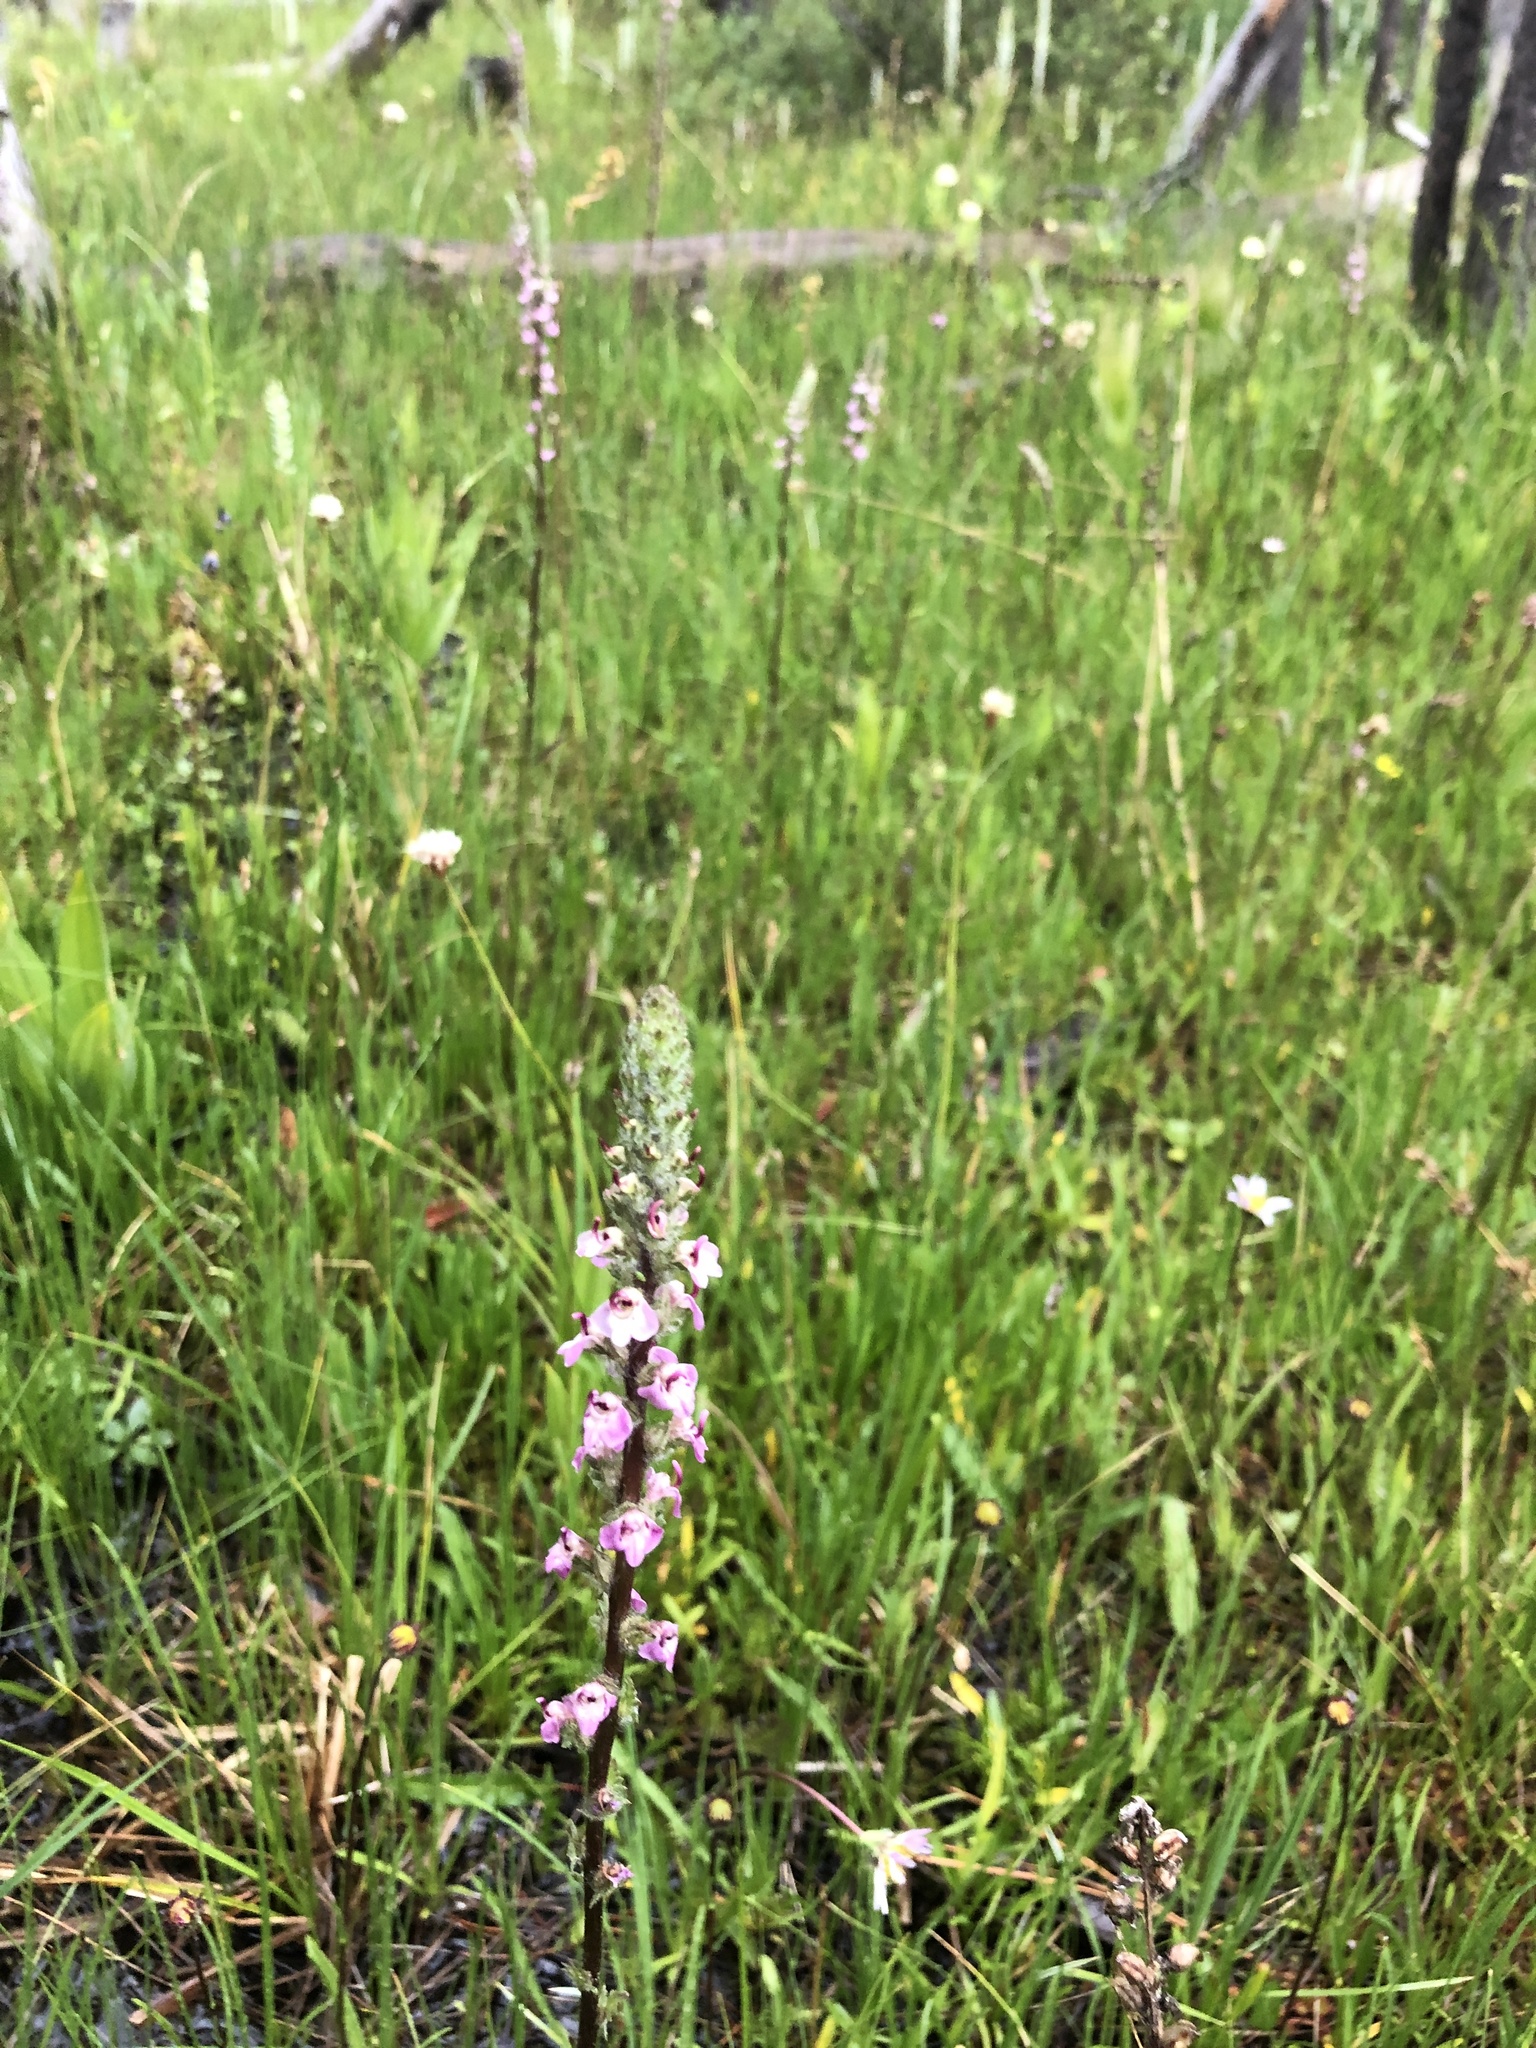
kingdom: Plantae
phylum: Tracheophyta
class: Magnoliopsida
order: Lamiales
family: Orobanchaceae
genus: Pedicularis
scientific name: Pedicularis attollens
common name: Slender pedicularis
